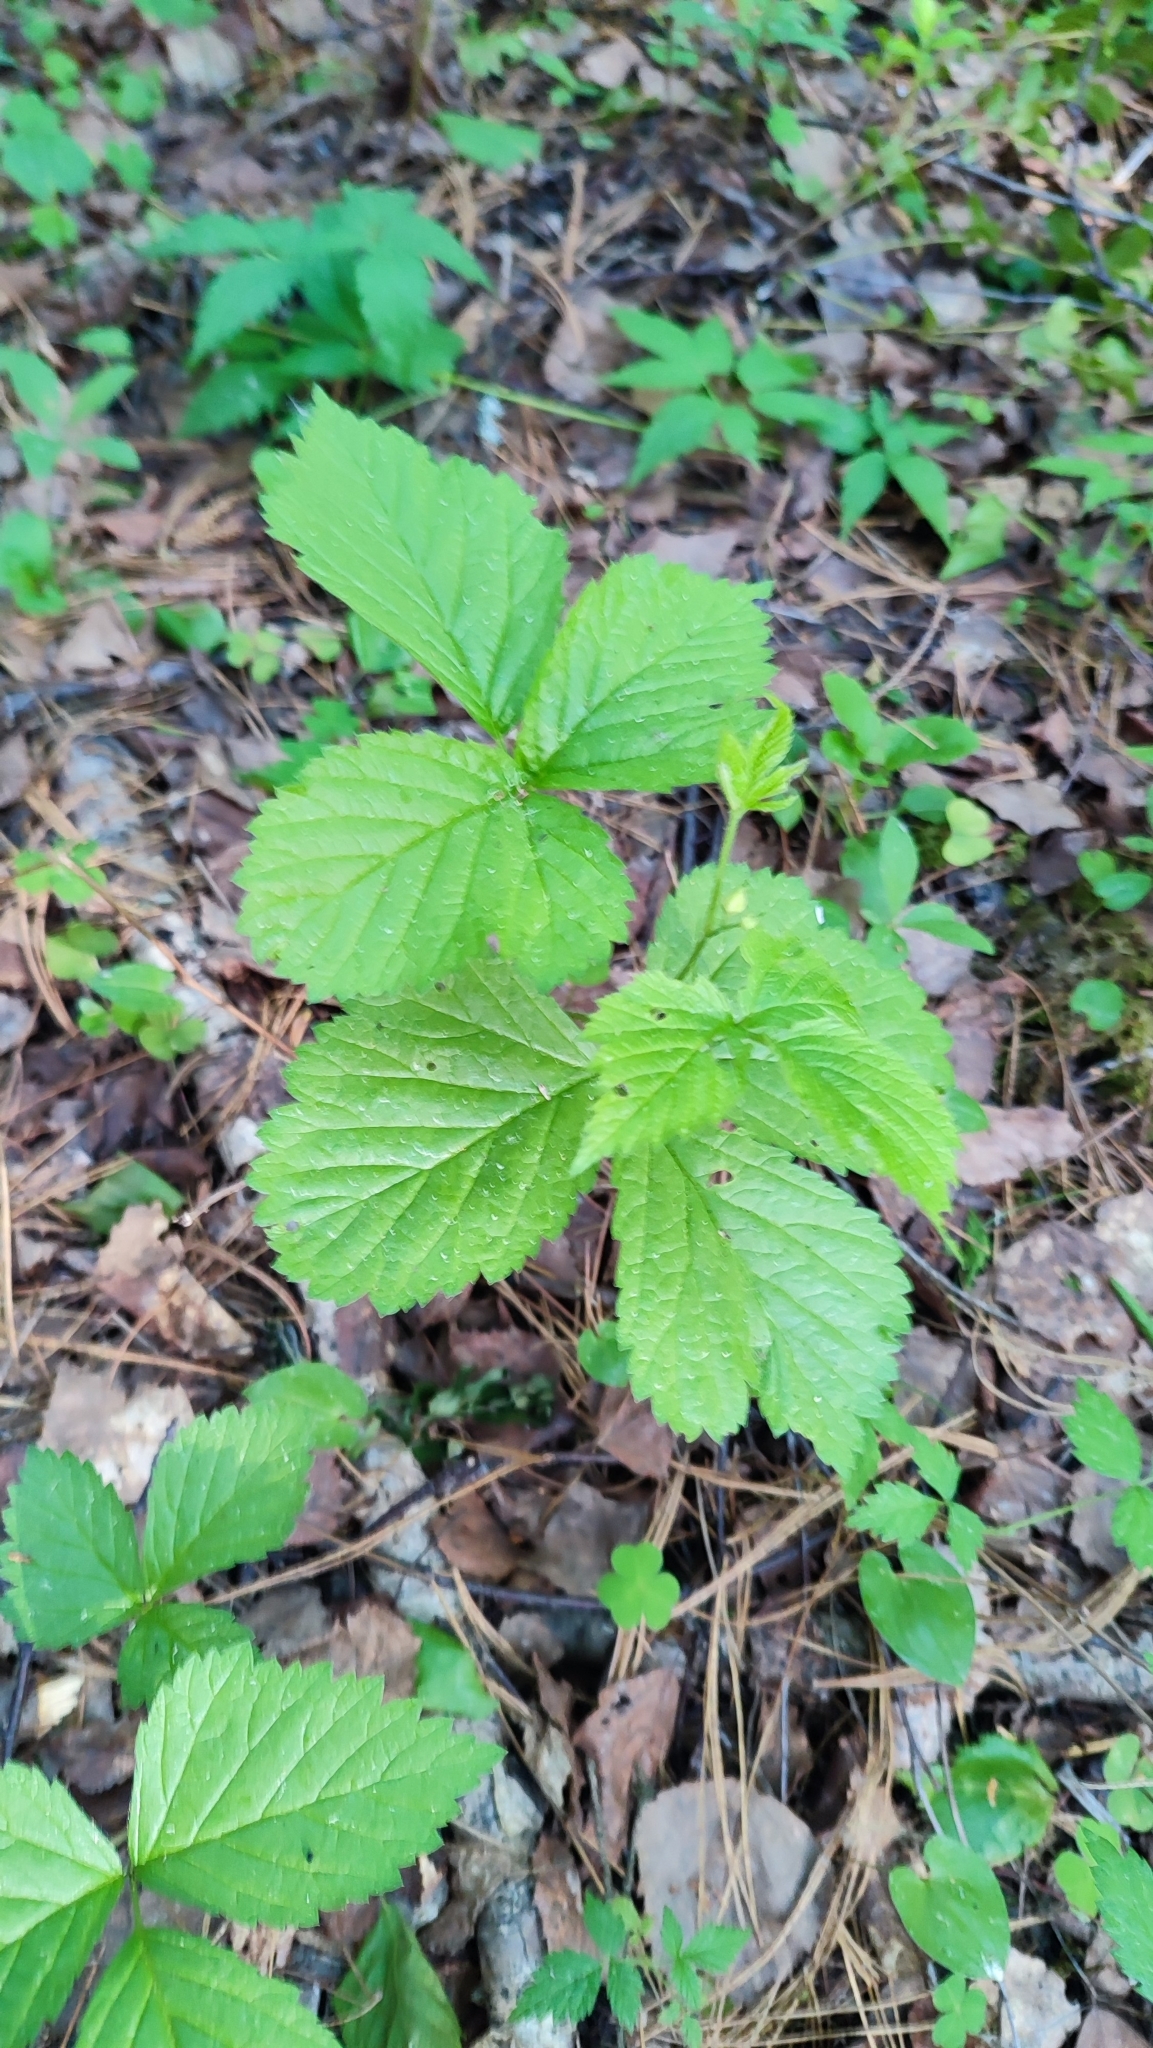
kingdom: Plantae
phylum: Tracheophyta
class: Magnoliopsida
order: Rosales
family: Rosaceae
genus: Rubus
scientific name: Rubus saxatilis
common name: Stone bramble
